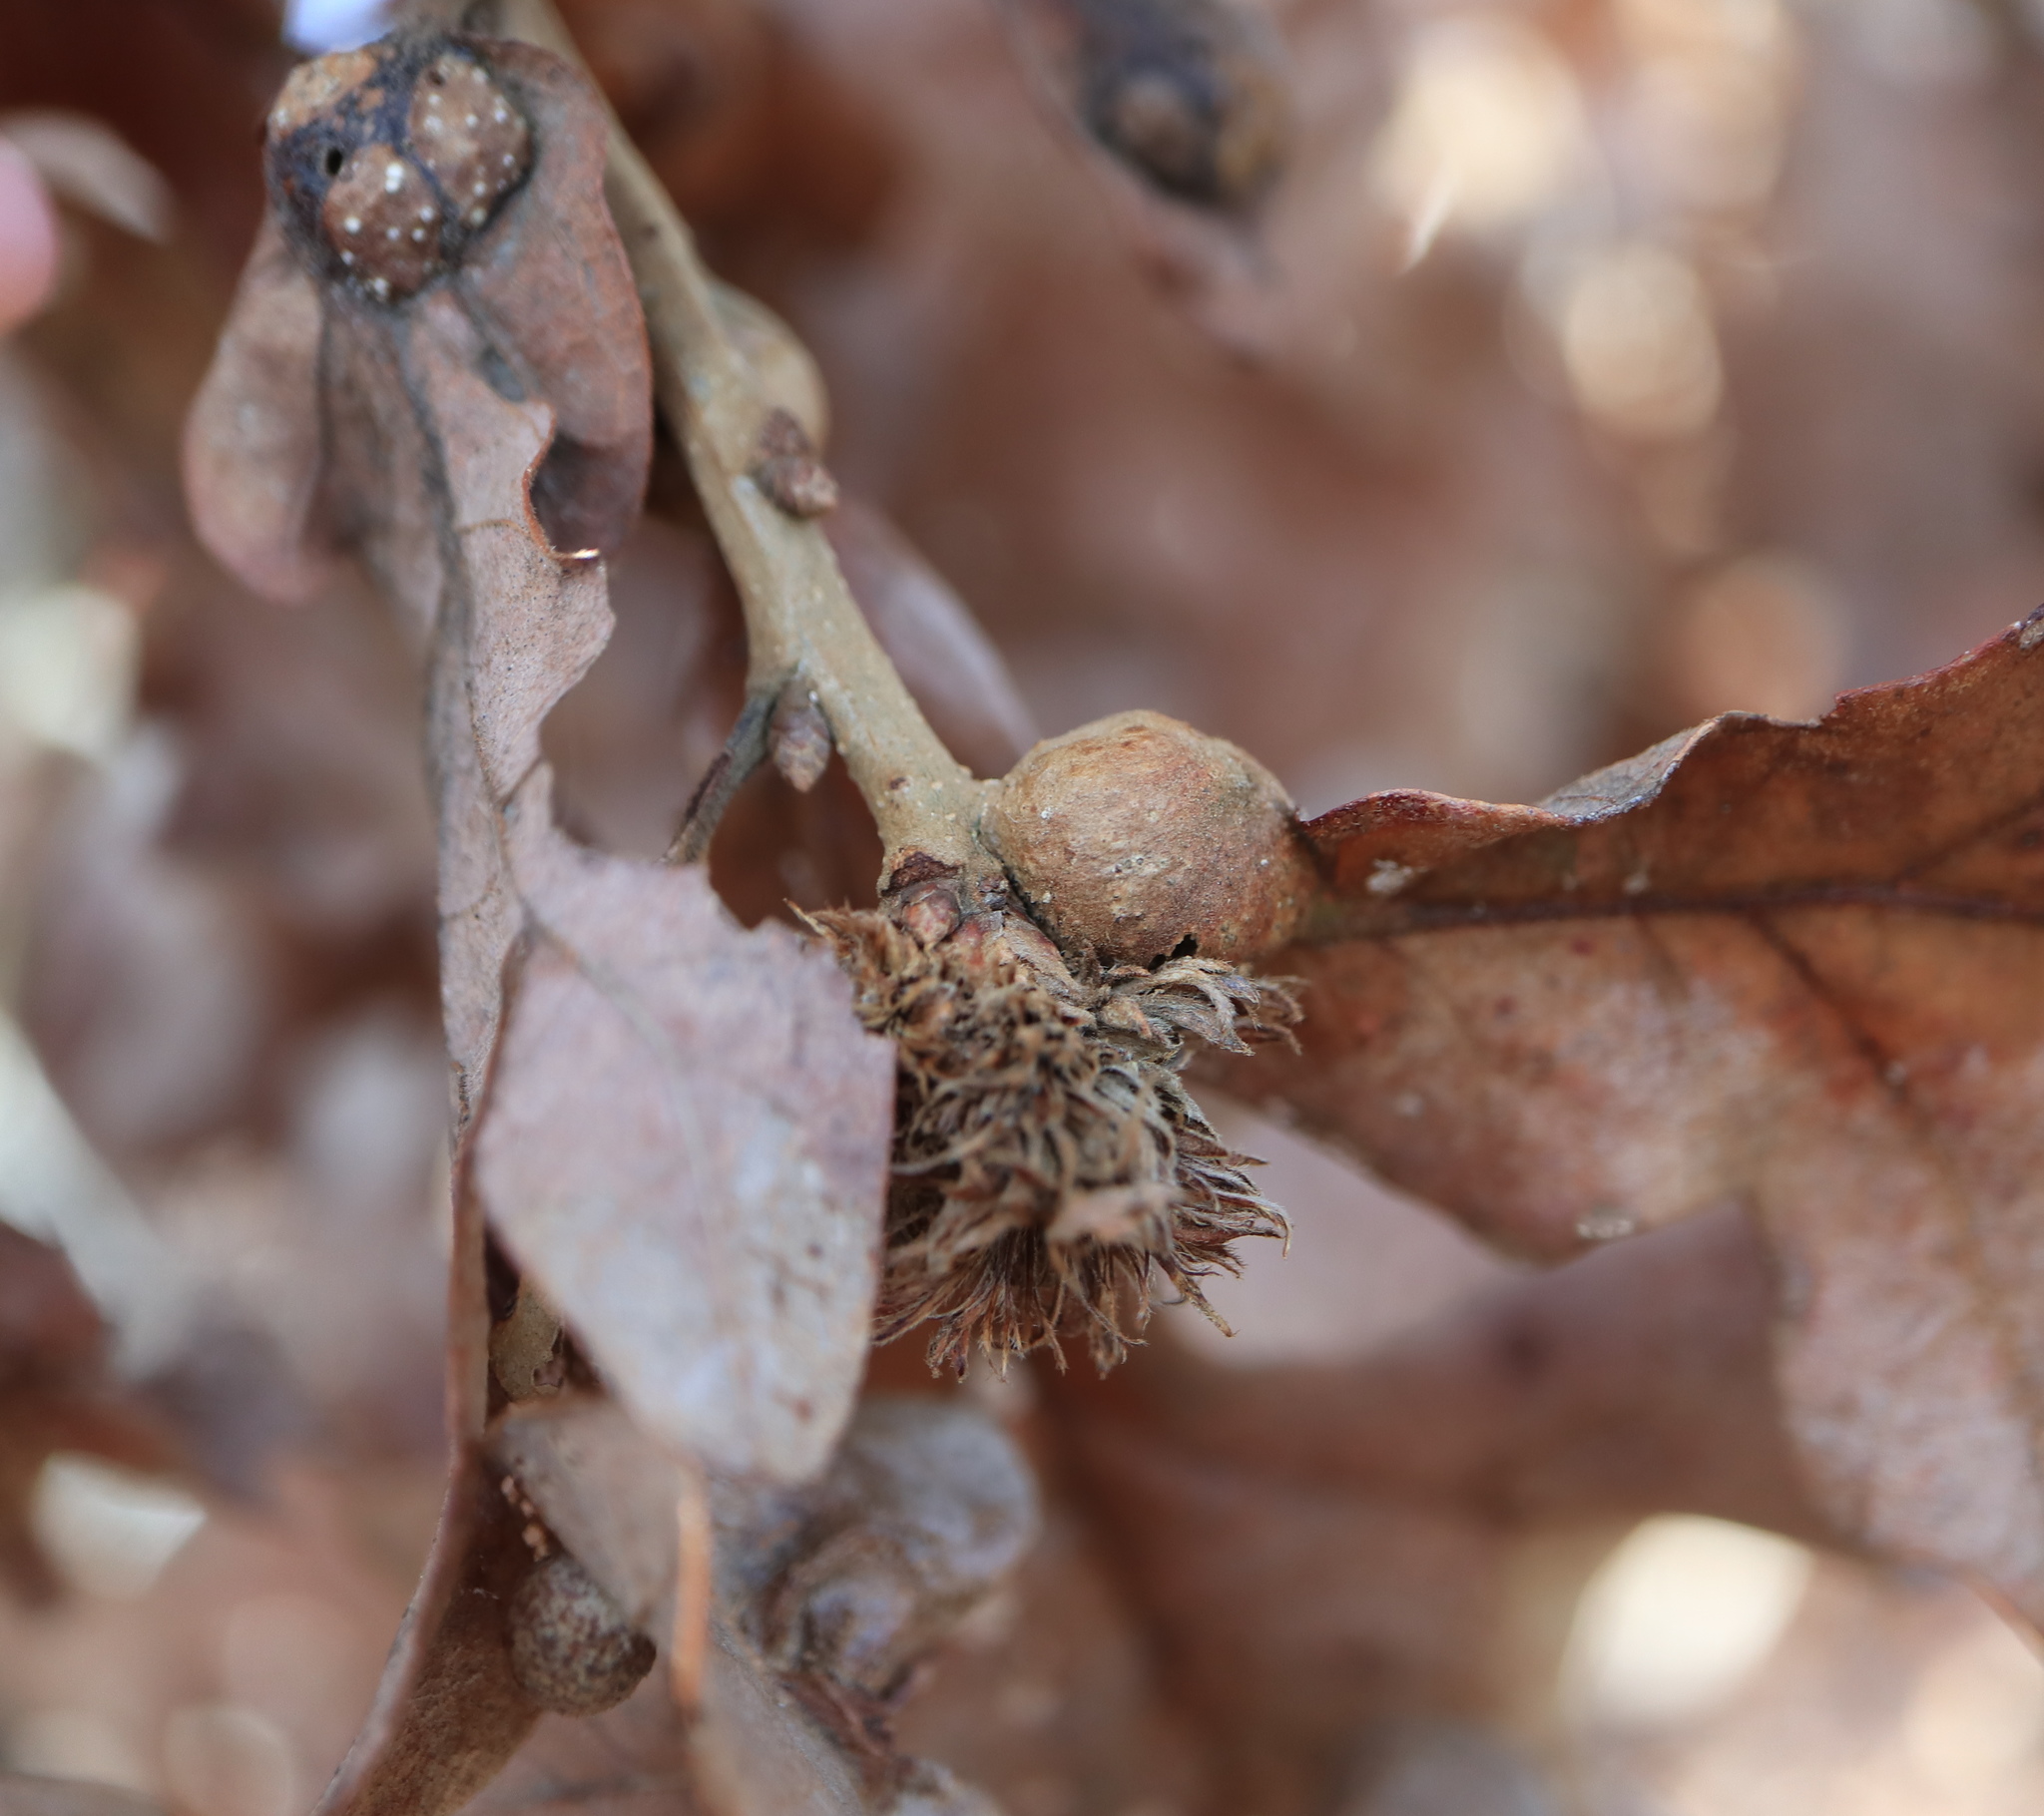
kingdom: Animalia
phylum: Arthropoda
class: Insecta
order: Hymenoptera
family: Cynipidae
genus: Andricus
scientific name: Andricus
